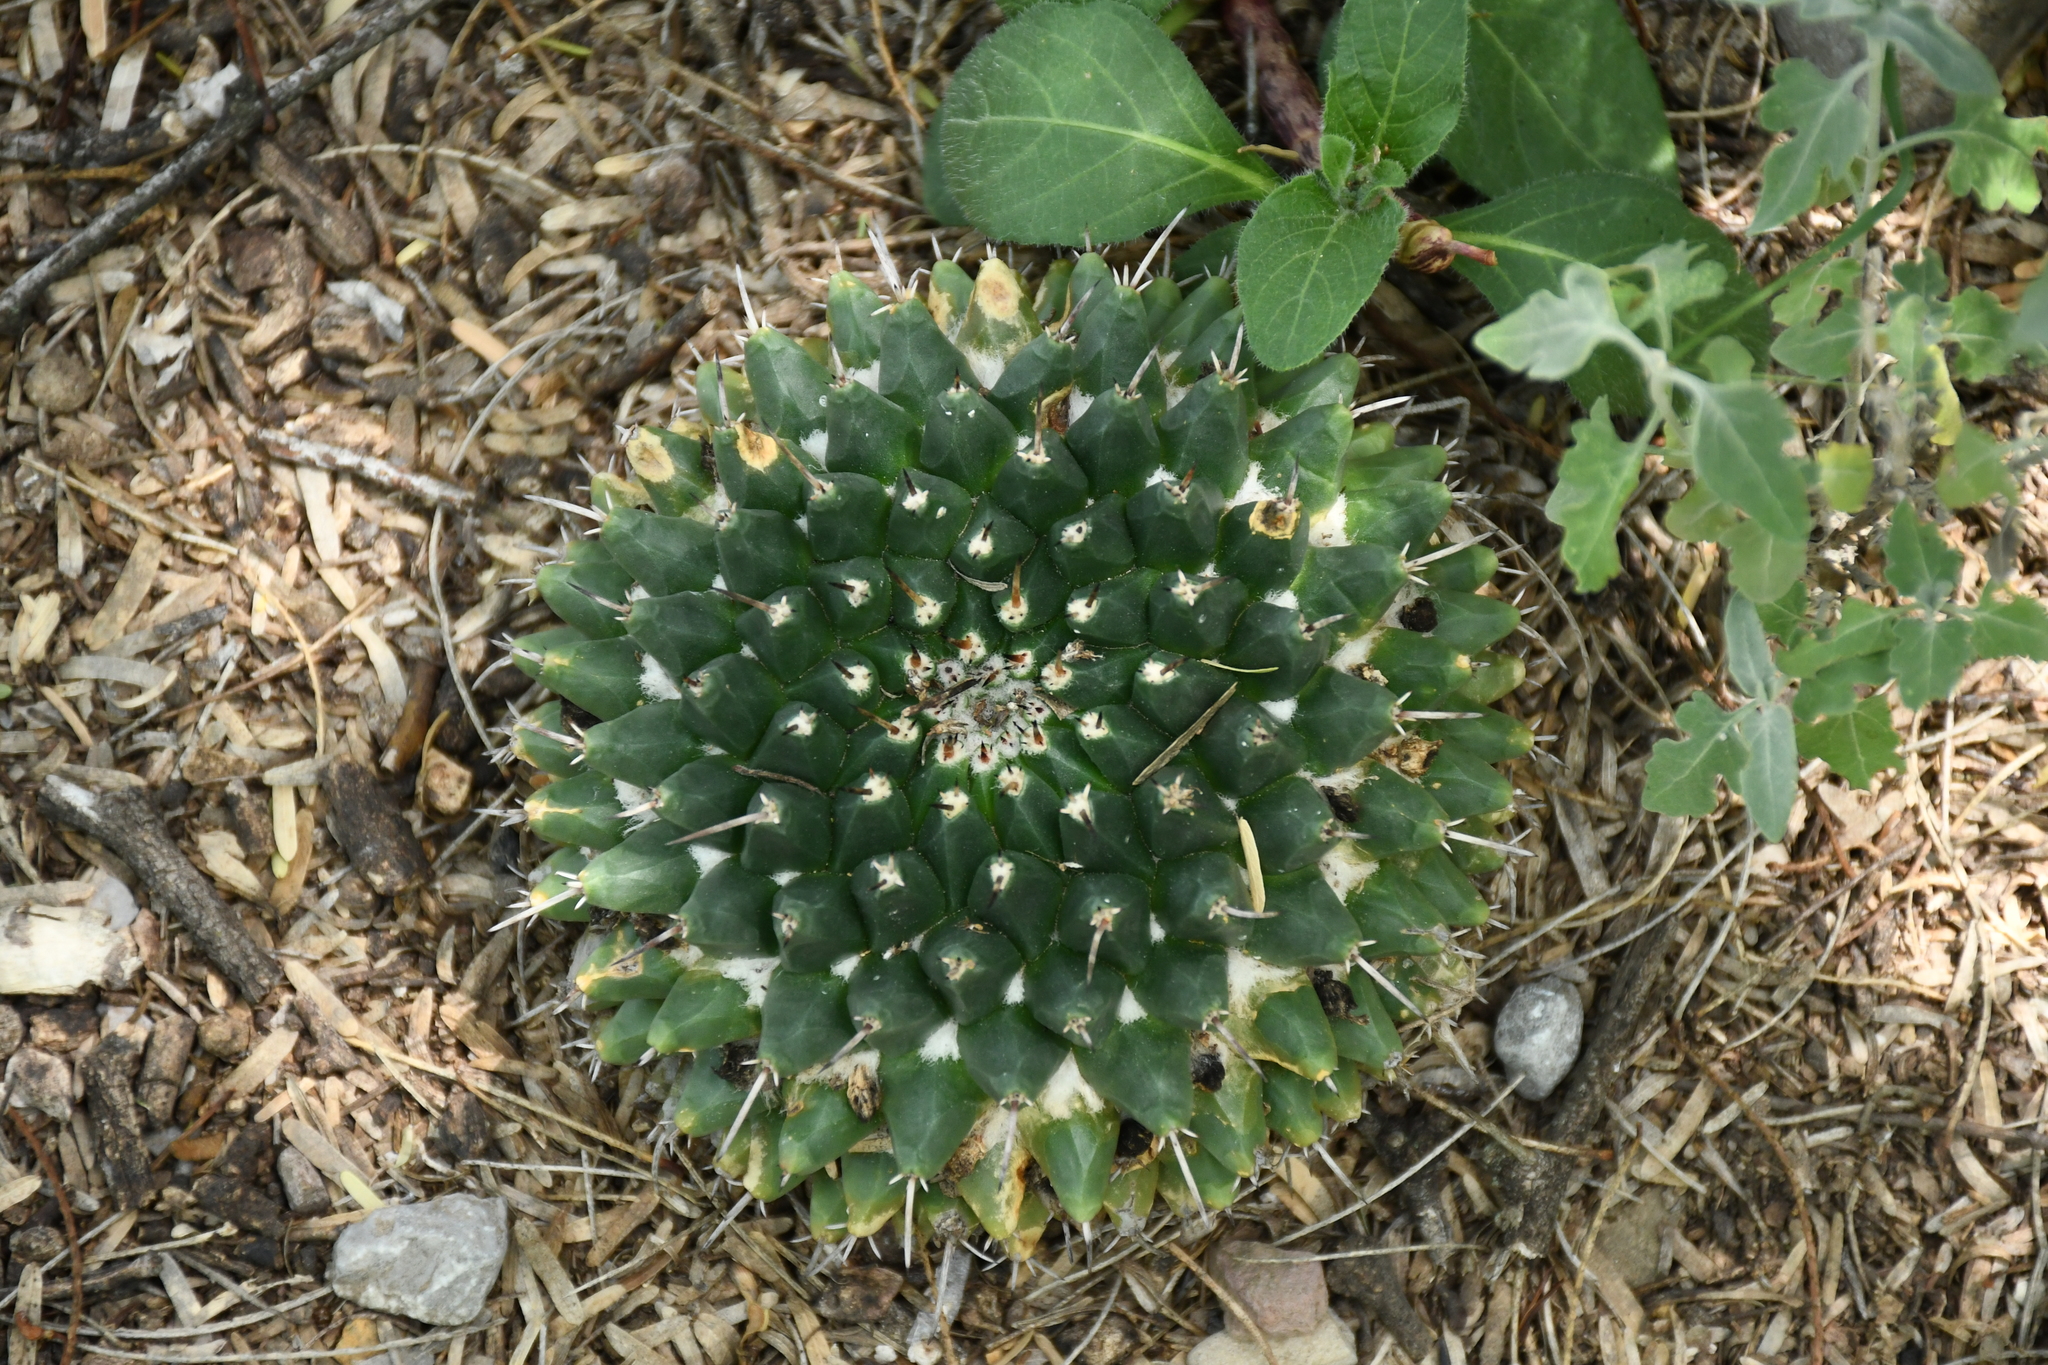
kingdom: Plantae
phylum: Tracheophyta
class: Magnoliopsida
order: Caryophyllales
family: Cactaceae
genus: Mammillaria
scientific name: Mammillaria magnimamma
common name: Mexican pincushion
